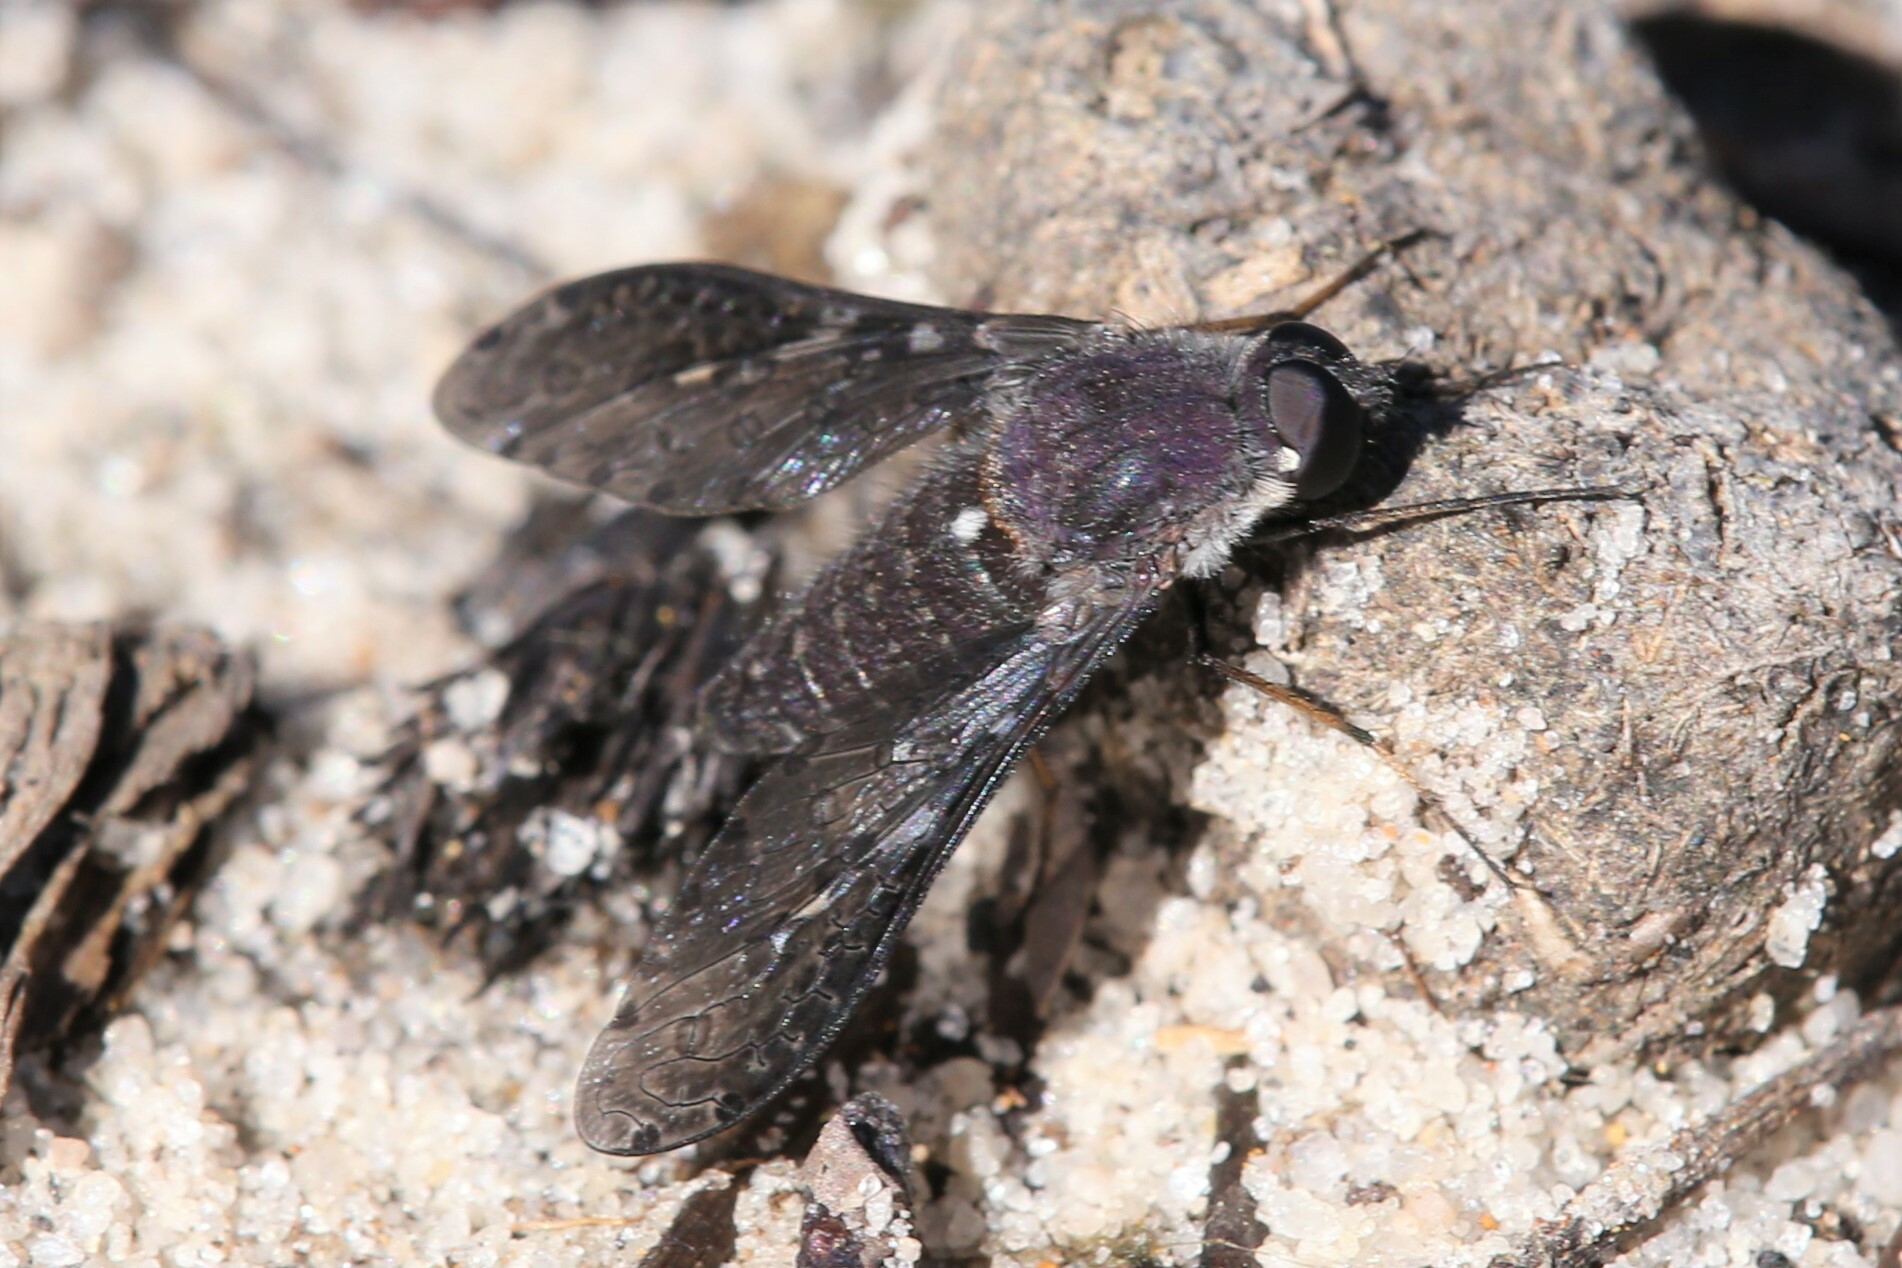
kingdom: Animalia
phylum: Arthropoda
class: Insecta
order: Diptera
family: Bombyliidae
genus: Aleucosia
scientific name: Aleucosia norrisi
